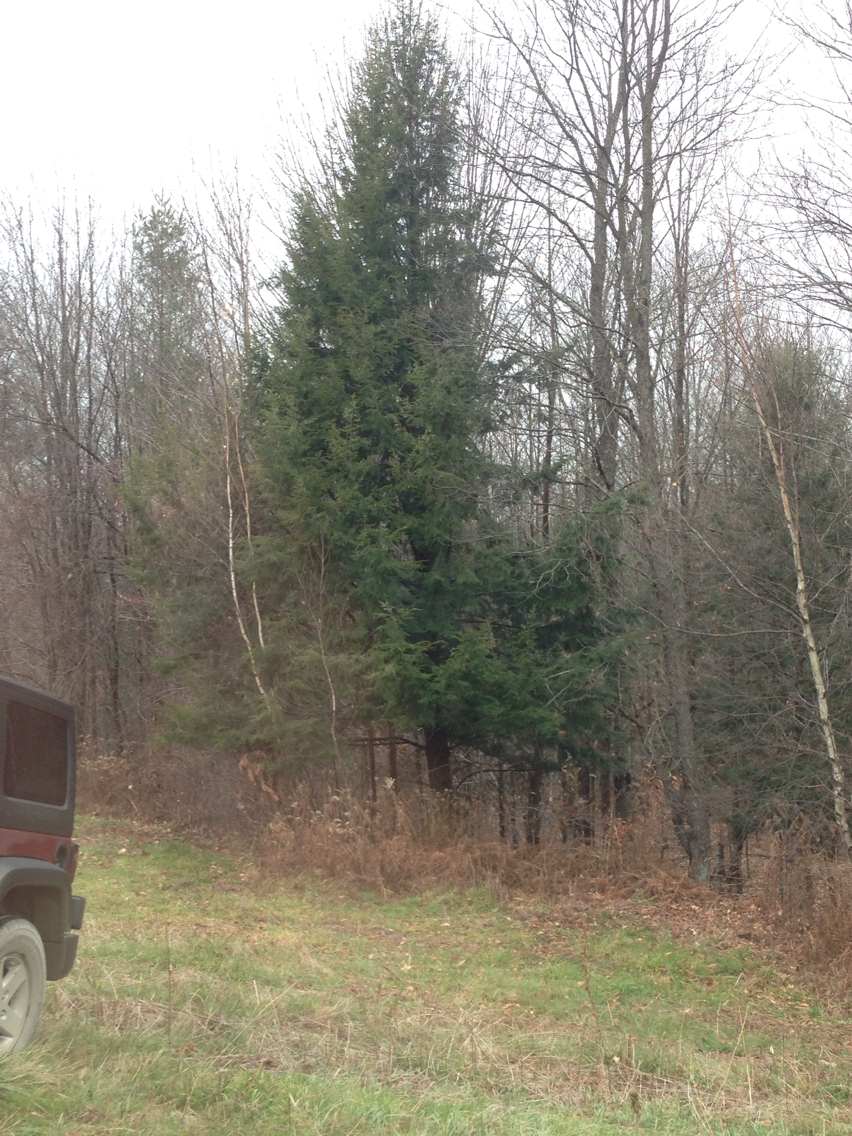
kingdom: Plantae
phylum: Tracheophyta
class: Pinopsida
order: Pinales
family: Pinaceae
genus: Tsuga
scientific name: Tsuga canadensis
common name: Eastern hemlock
